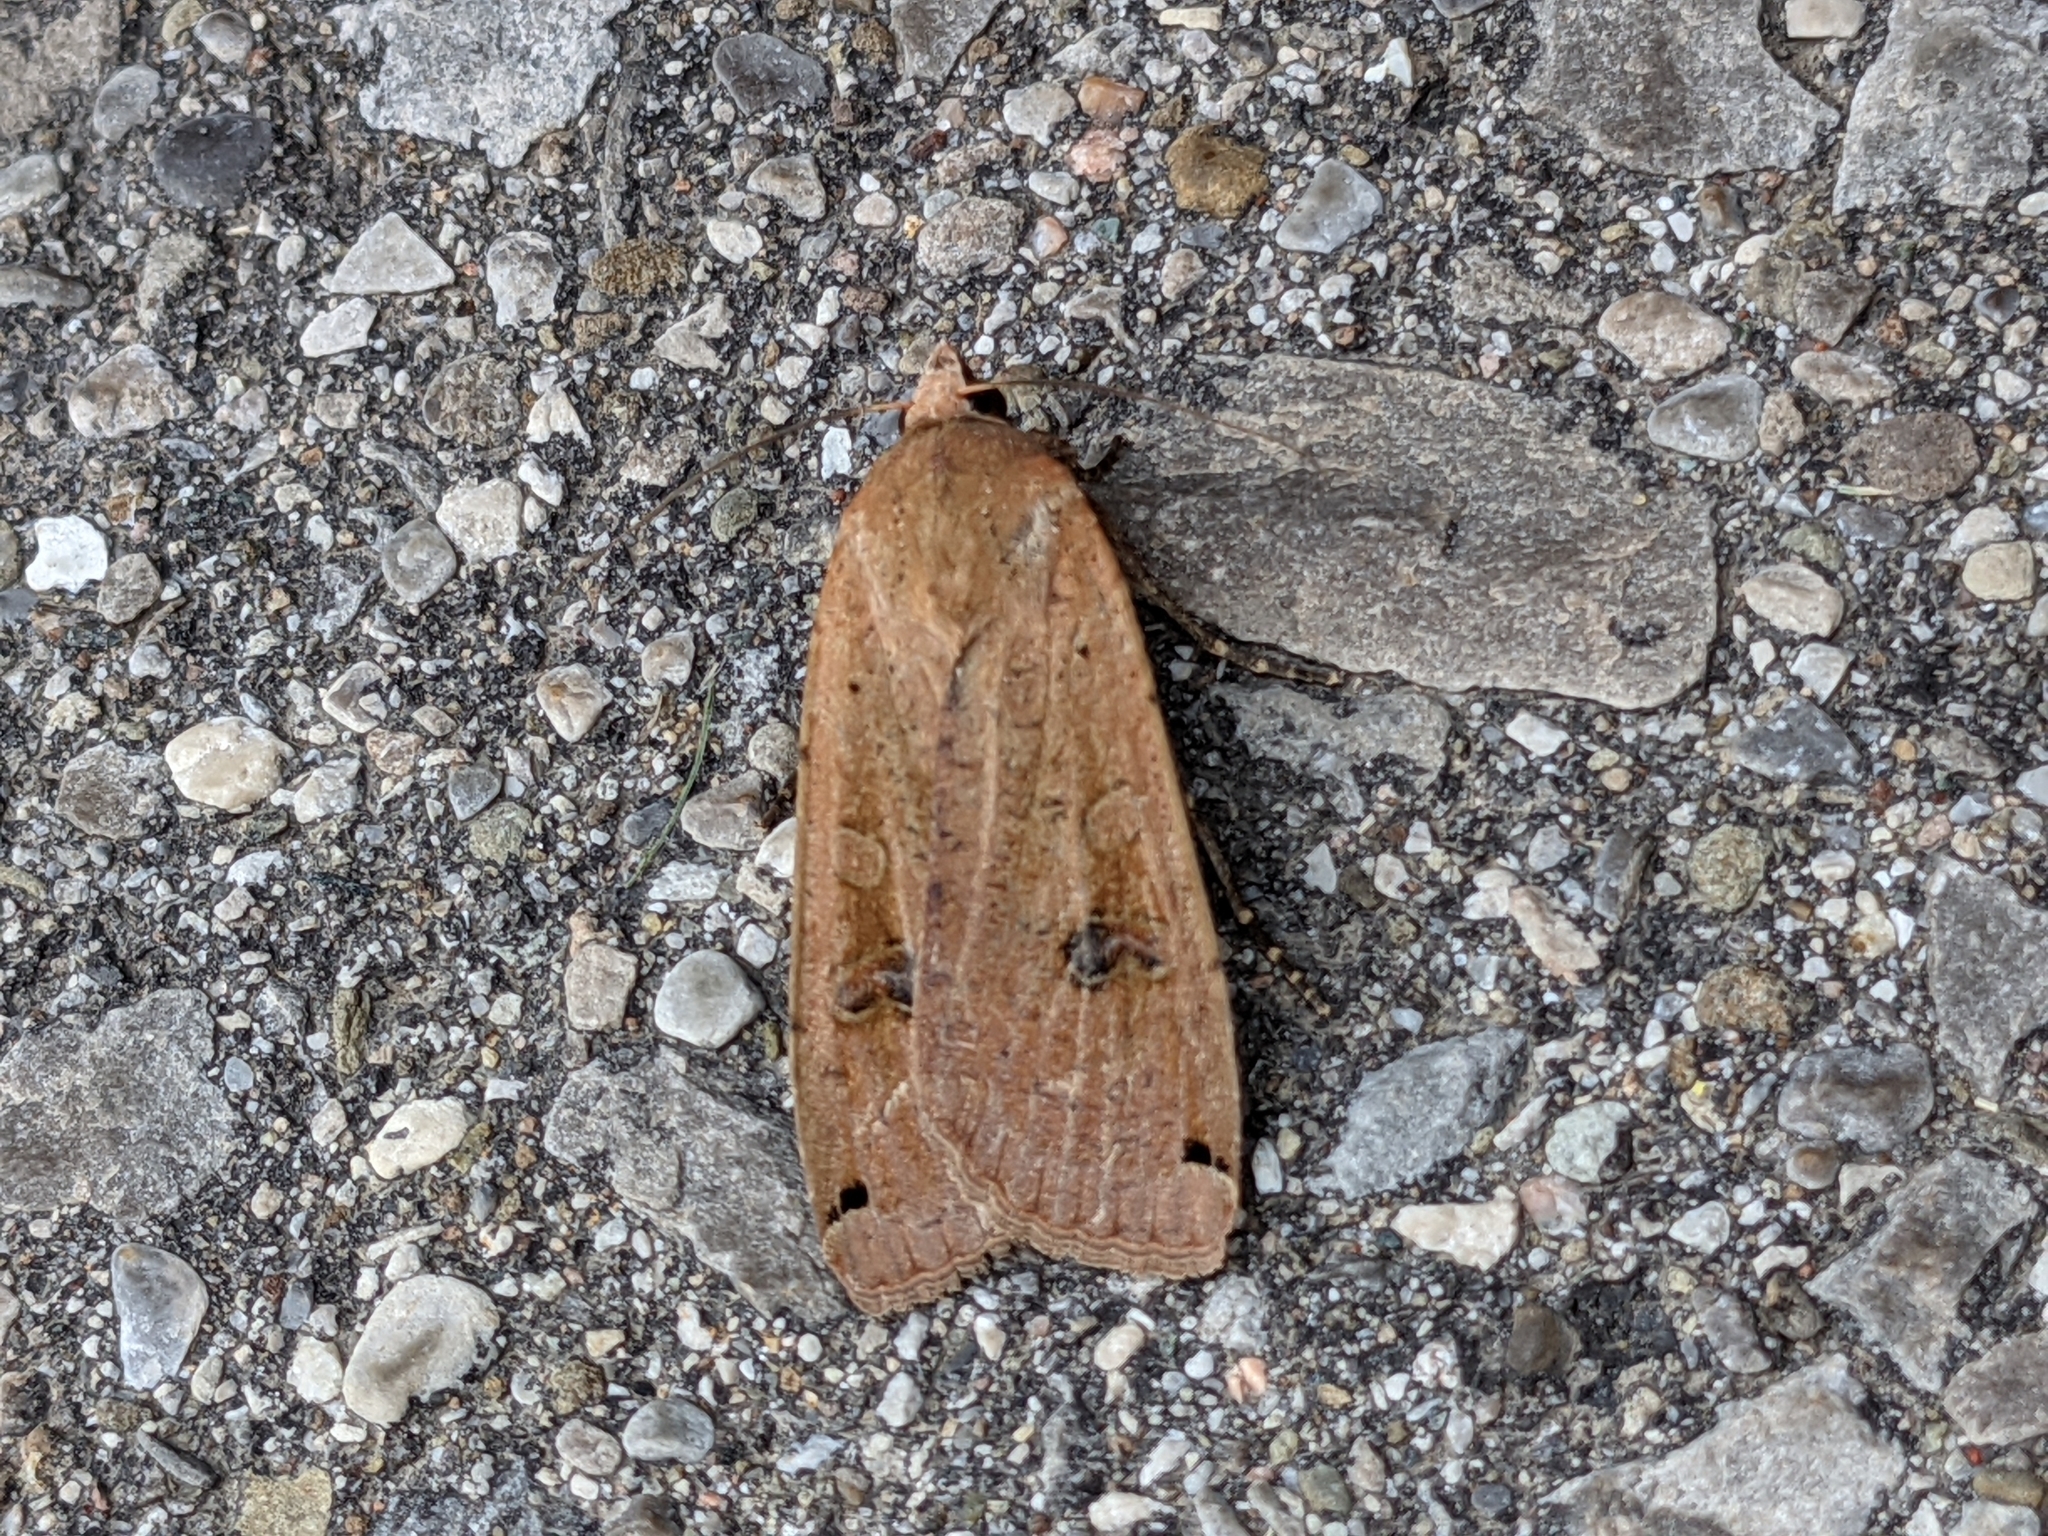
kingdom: Animalia
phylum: Arthropoda
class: Insecta
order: Lepidoptera
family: Noctuidae
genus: Noctua
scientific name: Noctua pronuba
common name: Large yellow underwing
